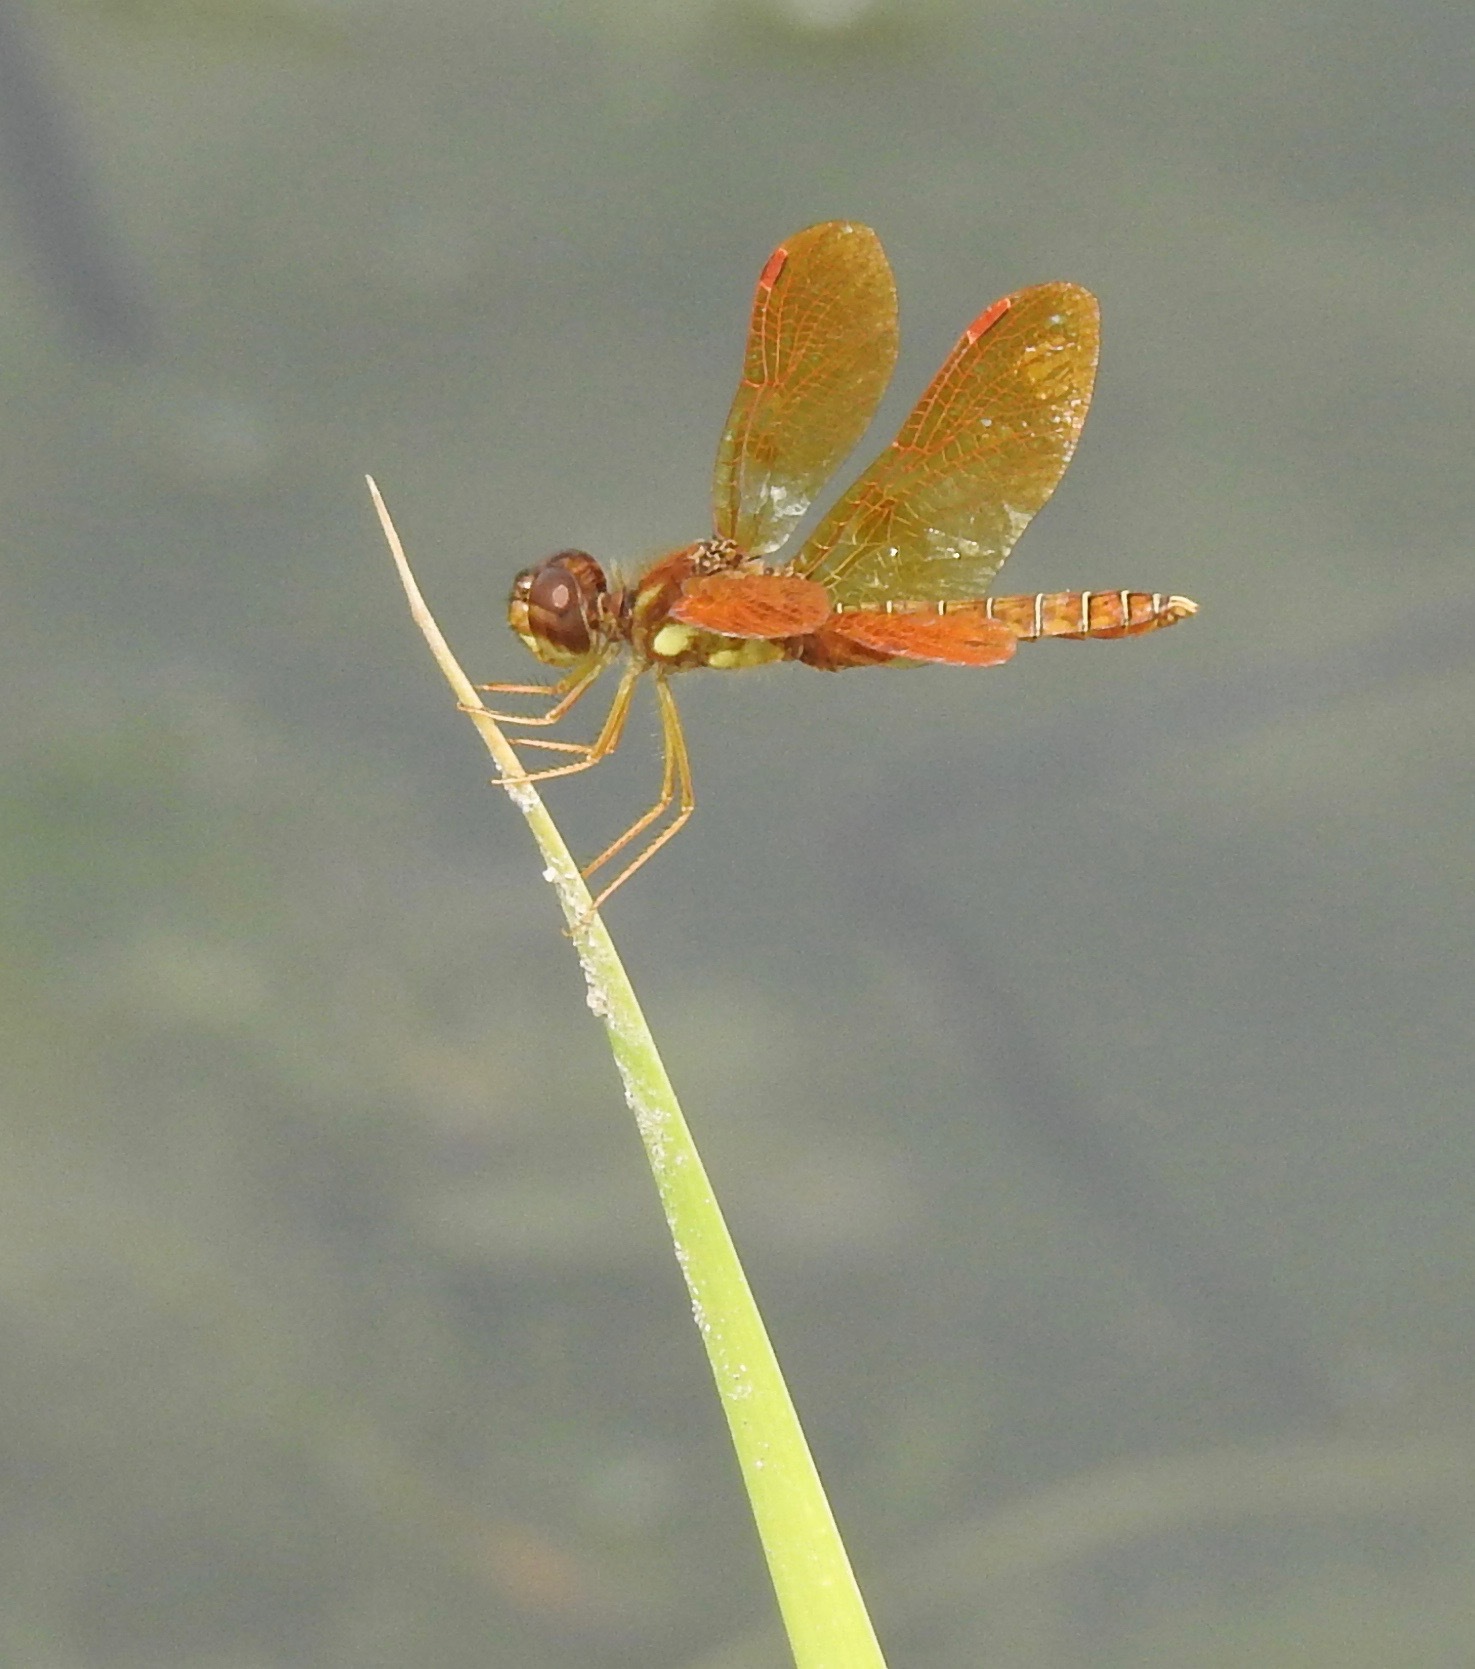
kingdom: Animalia
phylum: Arthropoda
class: Insecta
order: Odonata
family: Libellulidae
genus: Perithemis
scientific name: Perithemis tenera
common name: Eastern amberwing
